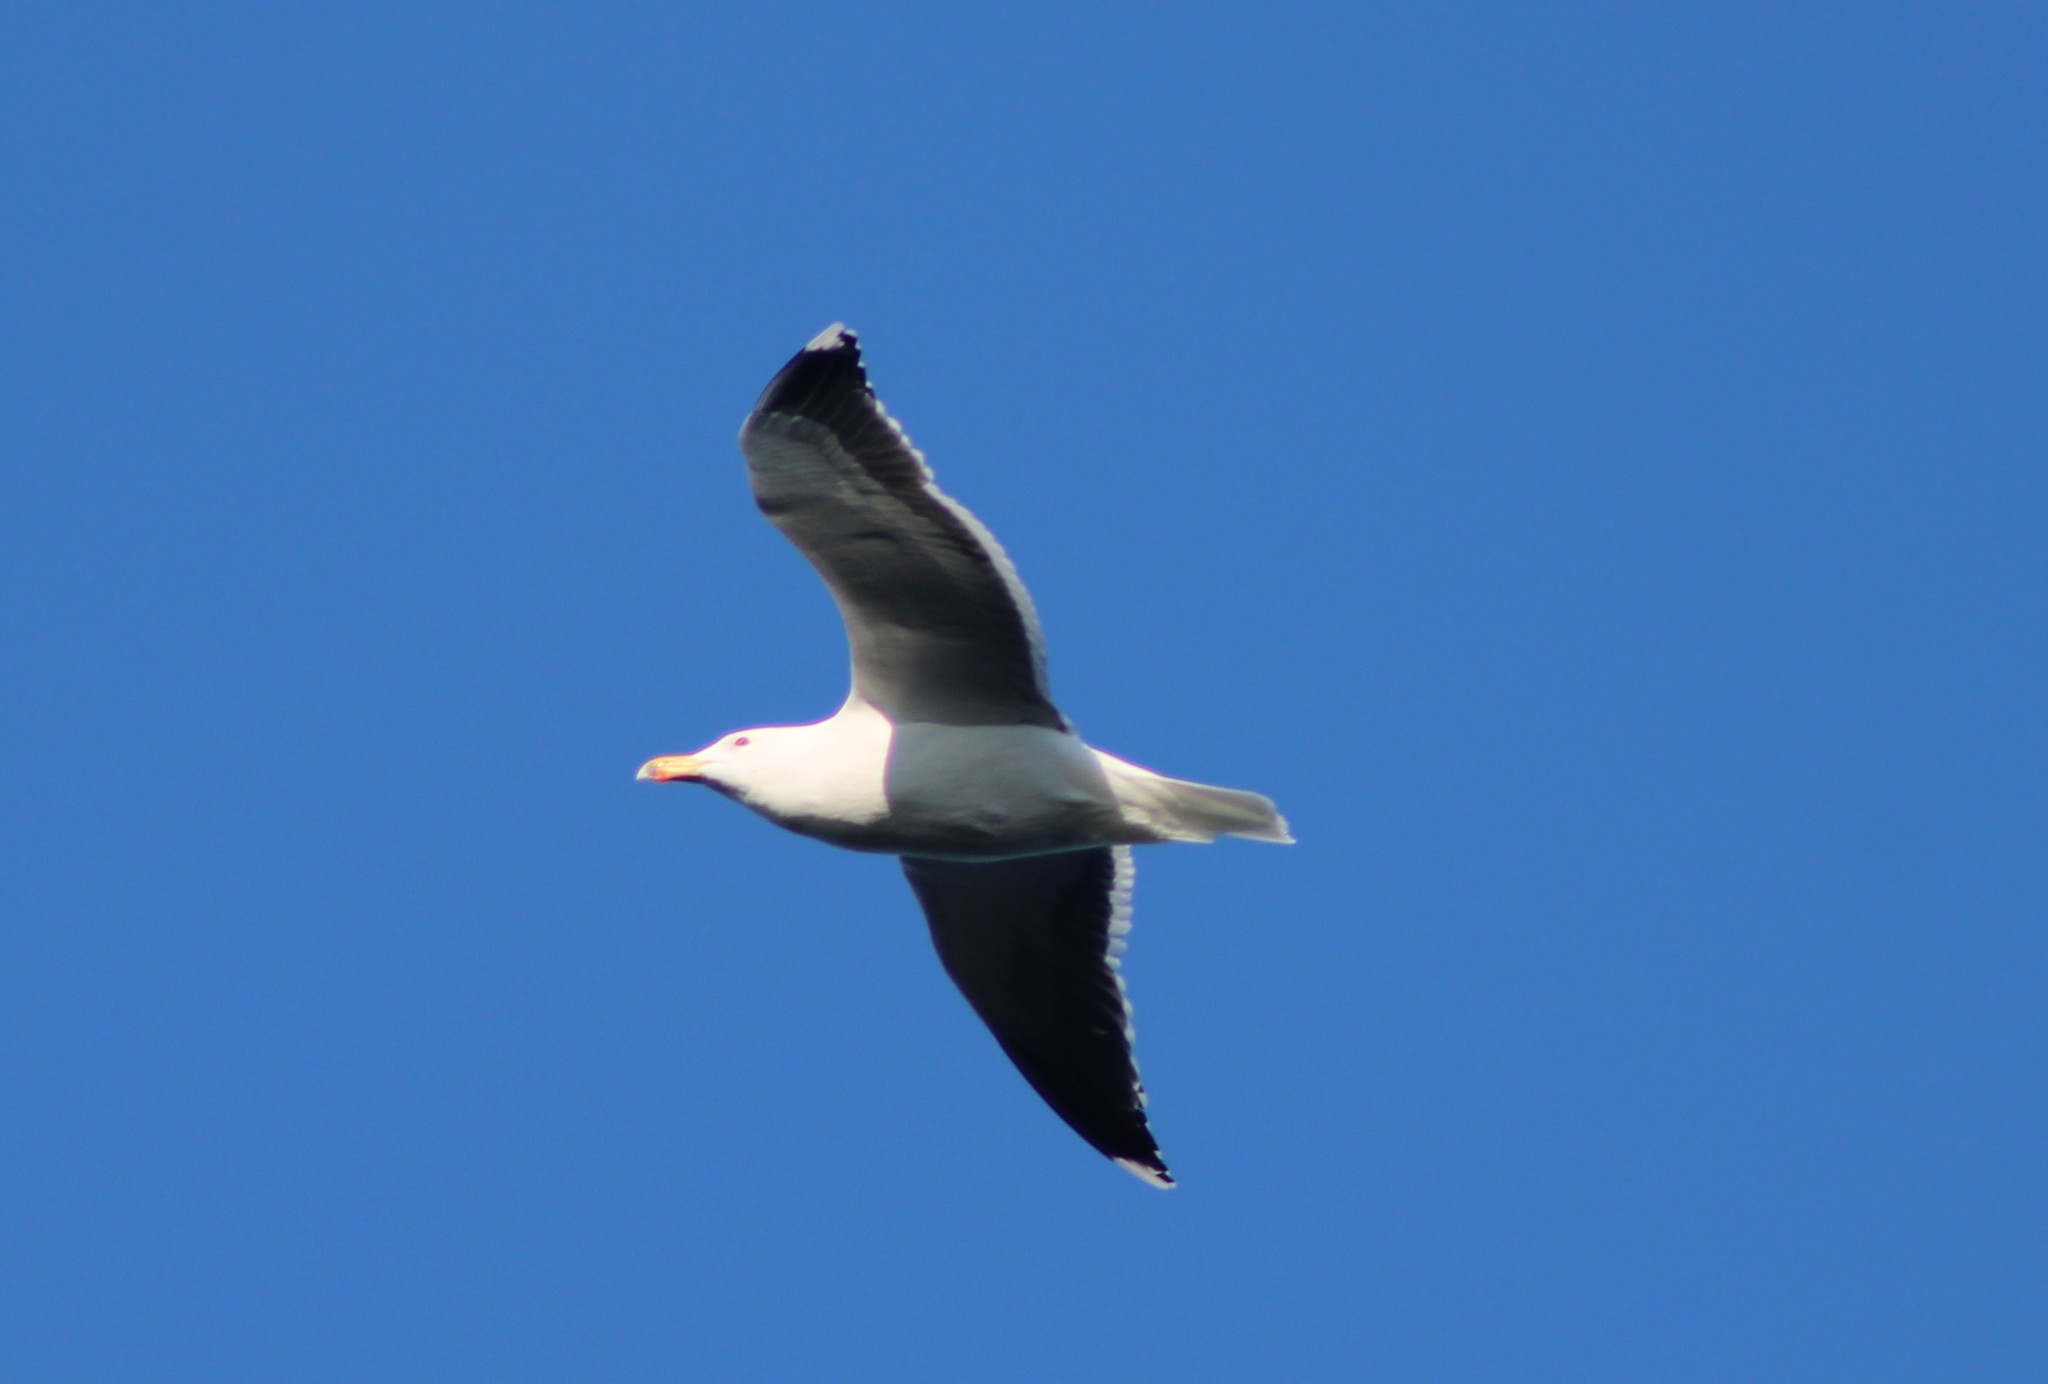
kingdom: Animalia
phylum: Chordata
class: Aves
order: Charadriiformes
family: Laridae
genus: Larus
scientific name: Larus marinus
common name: Great black-backed gull
